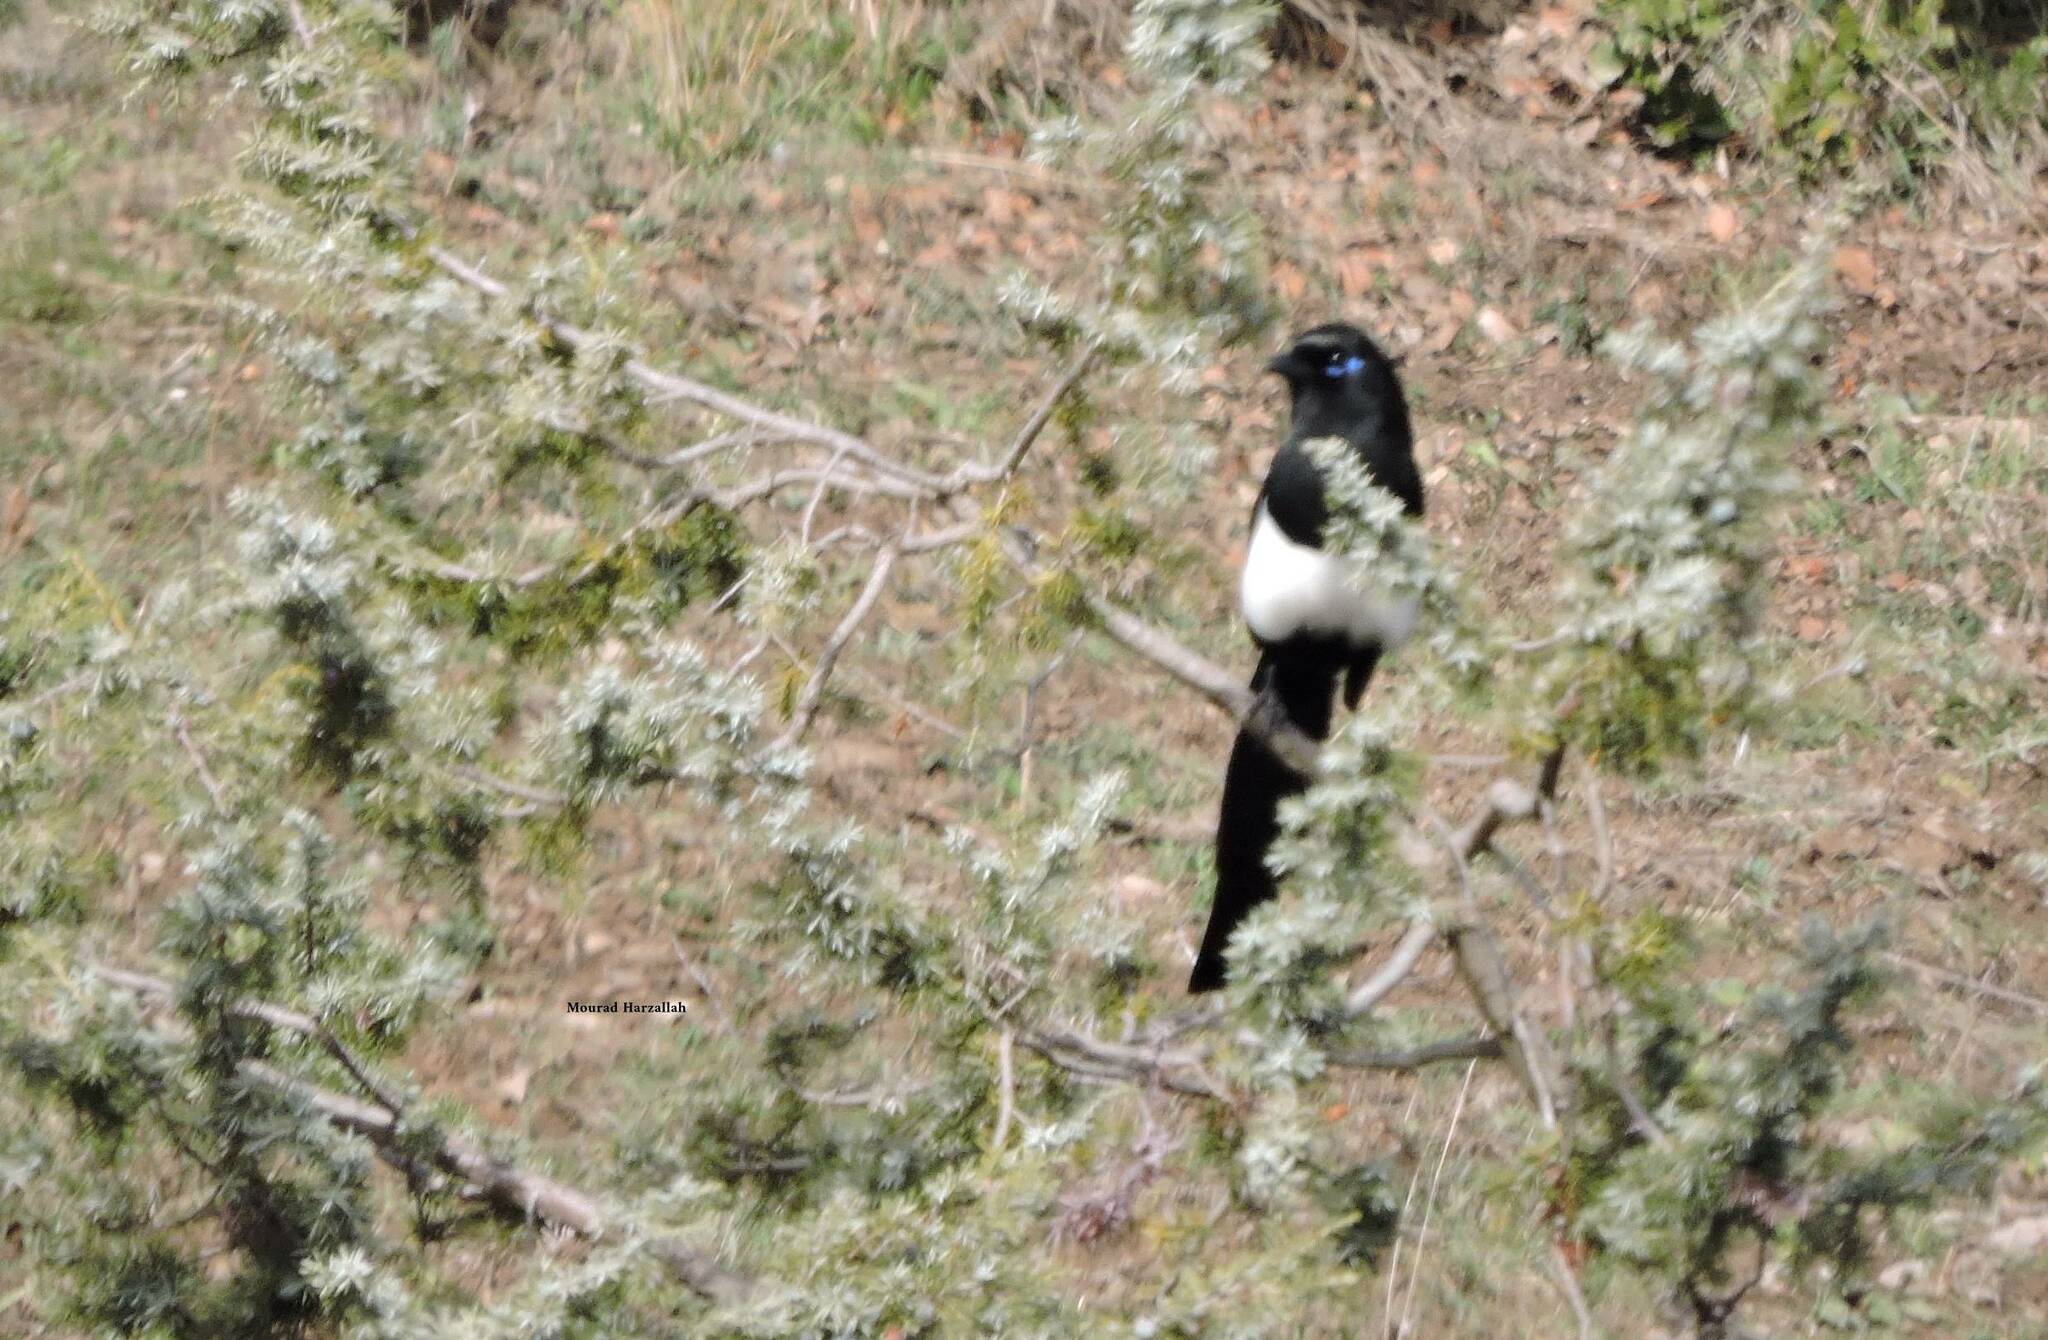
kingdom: Animalia
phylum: Chordata
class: Aves
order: Passeriformes
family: Corvidae
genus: Pica
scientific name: Pica mauritanica
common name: Maghreb magpie
